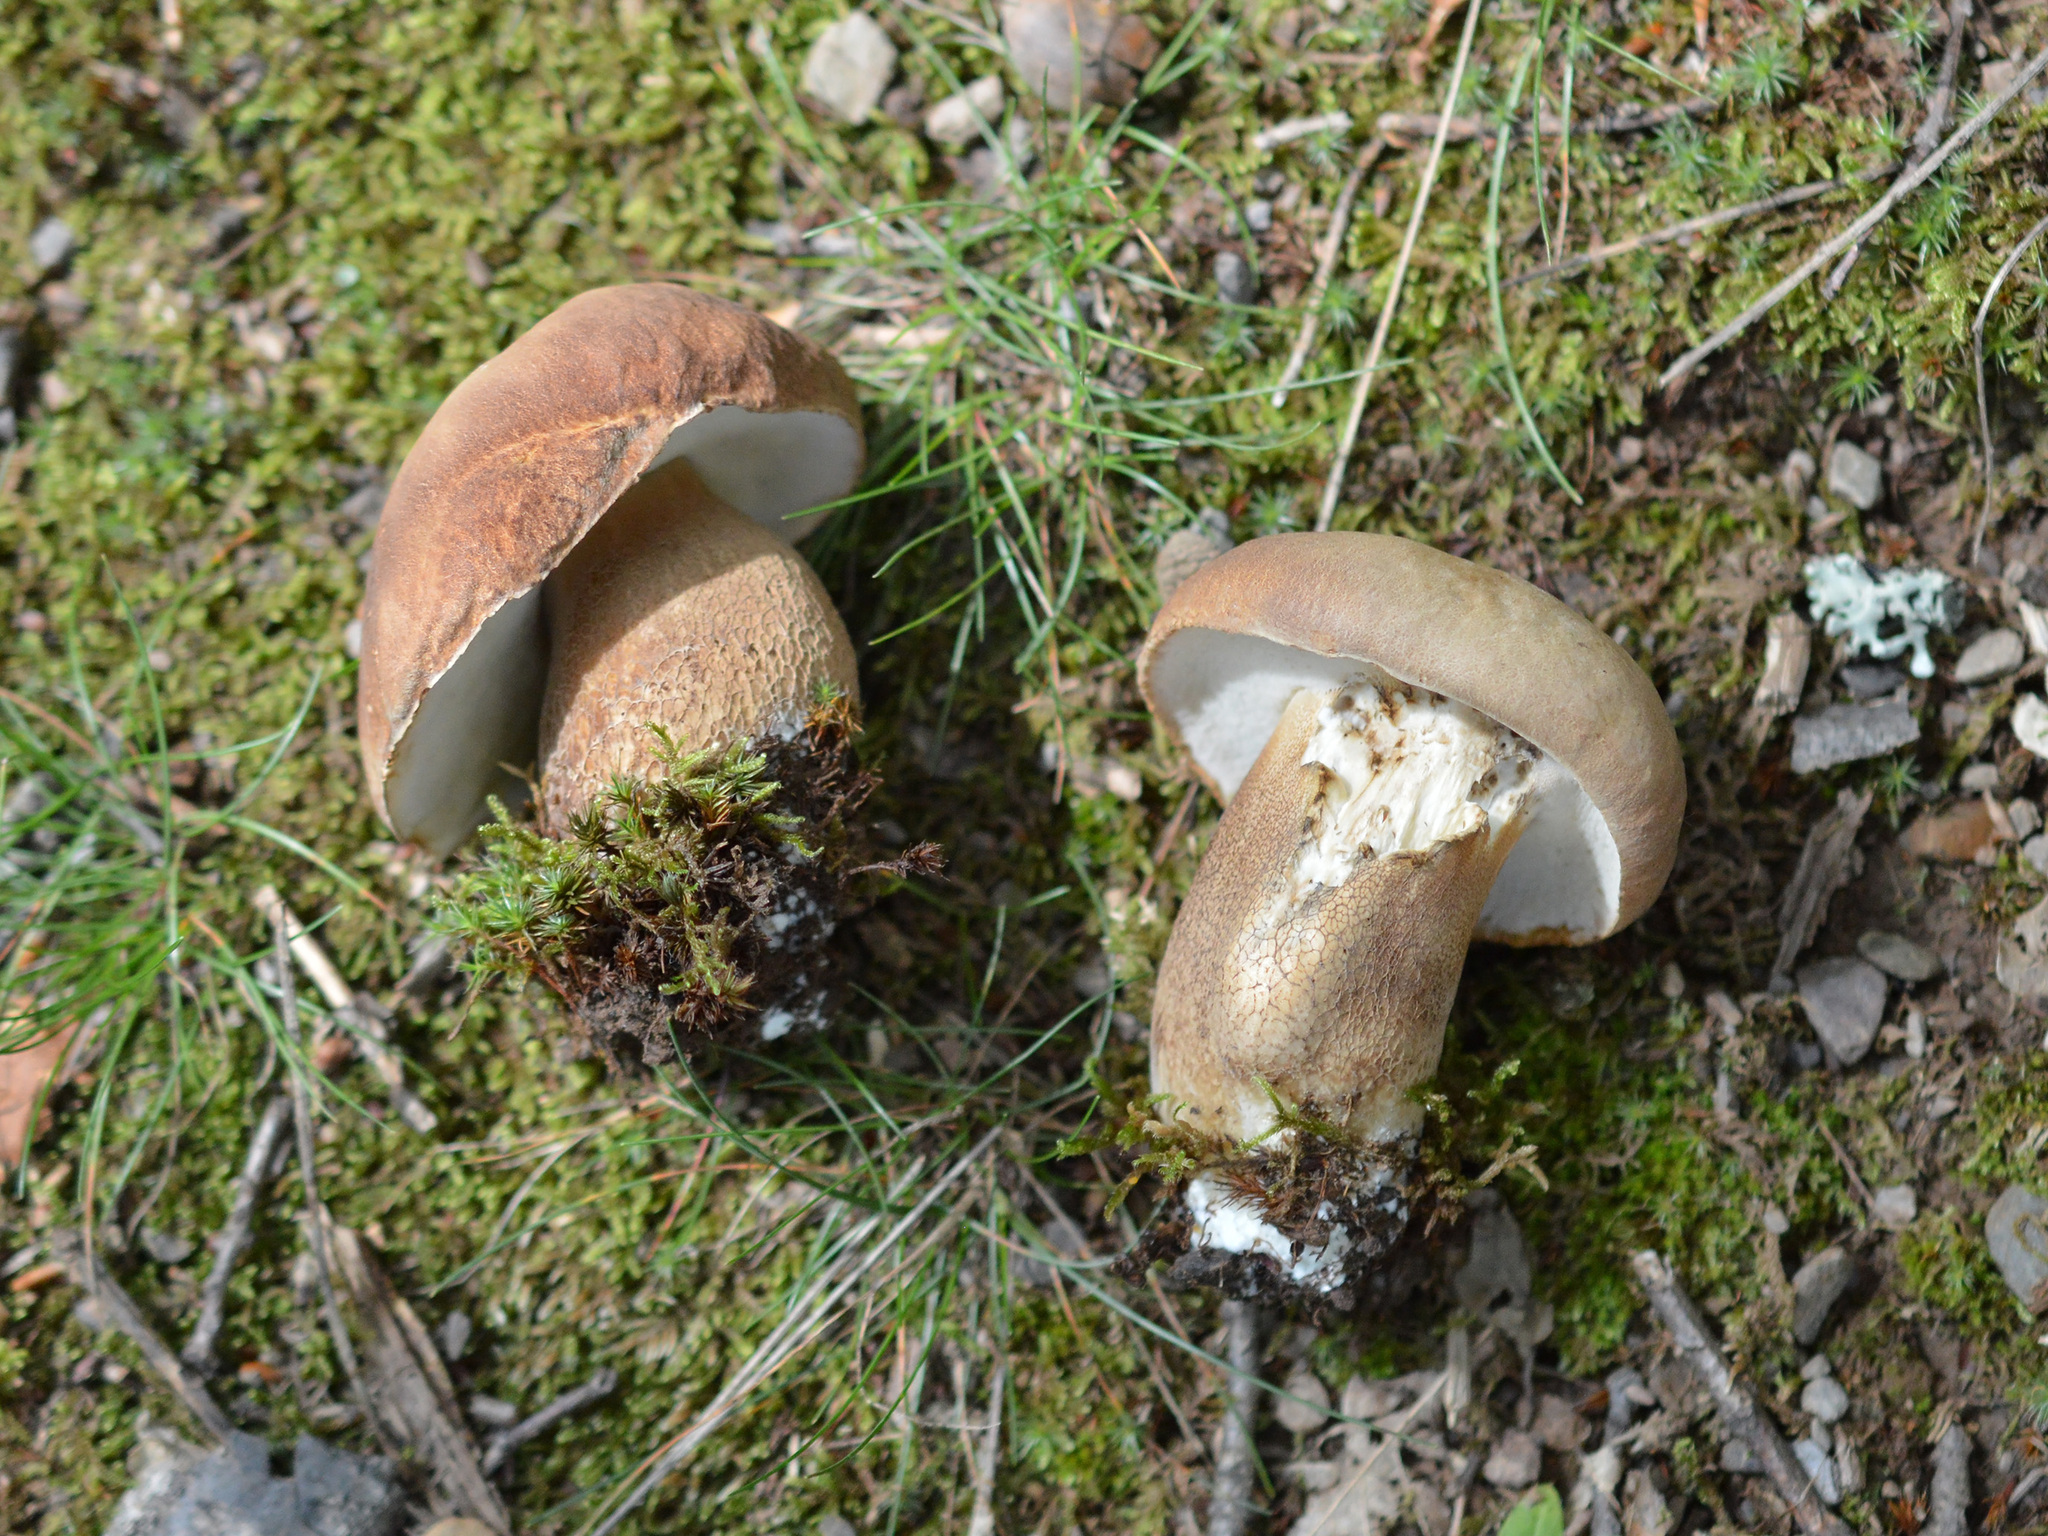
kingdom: Fungi
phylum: Basidiomycota
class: Agaricomycetes
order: Boletales
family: Boletaceae
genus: Boletus
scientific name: Boletus reticulatus
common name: Summer bolete
